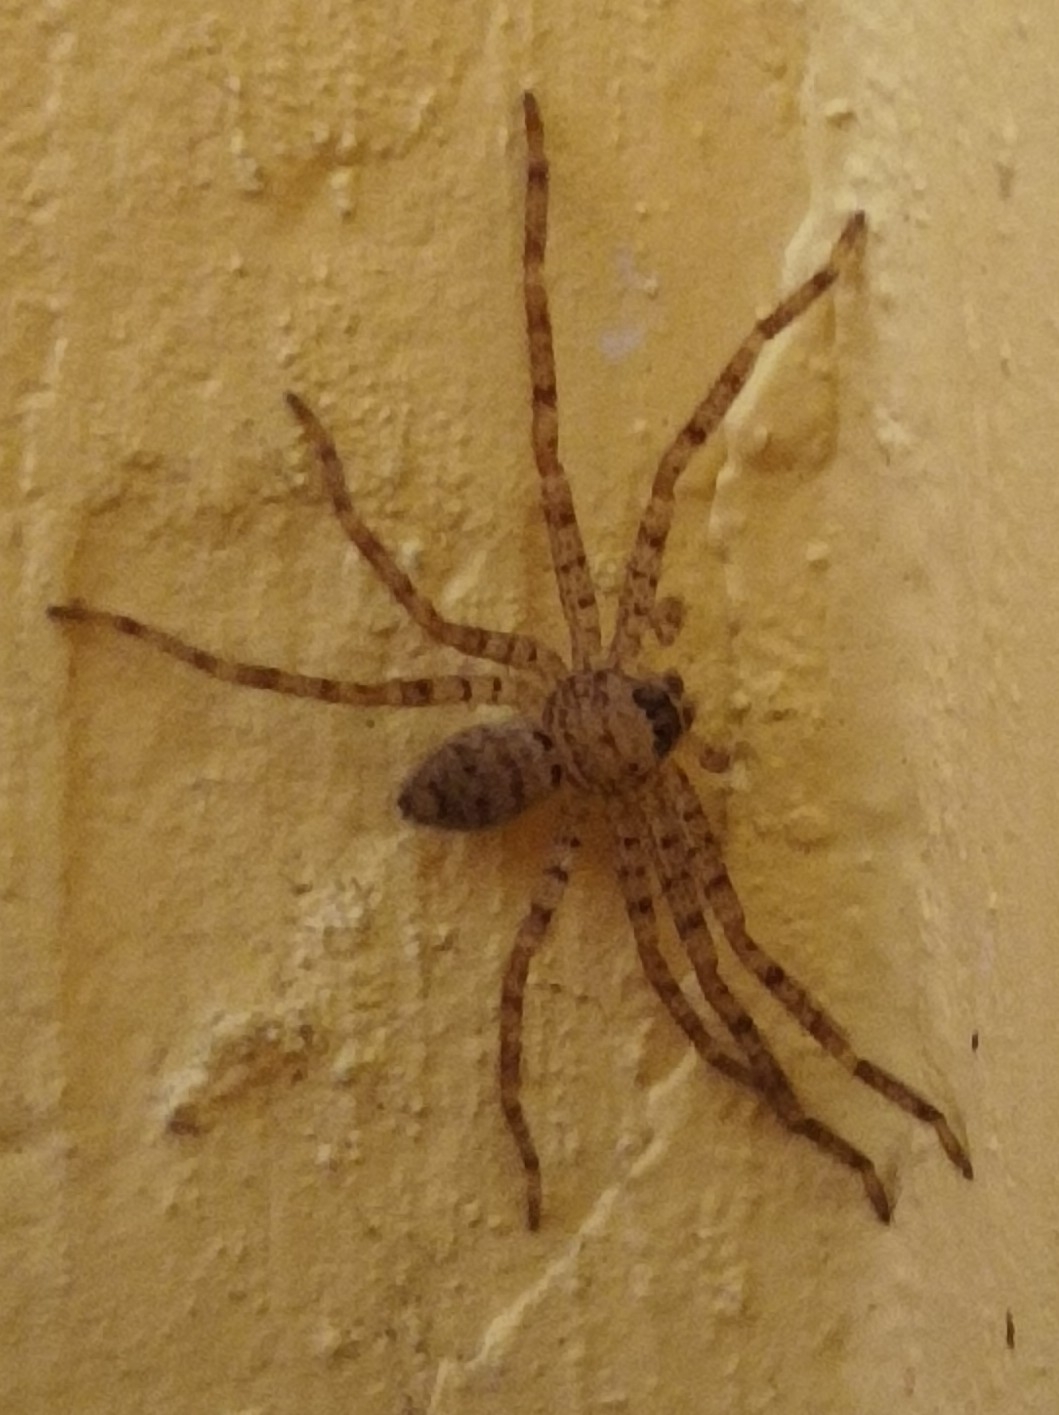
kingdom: Animalia
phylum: Arthropoda
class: Arachnida
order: Araneae
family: Sparassidae
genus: Heteropoda
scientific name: Heteropoda venatoria
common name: Huntsman spider
